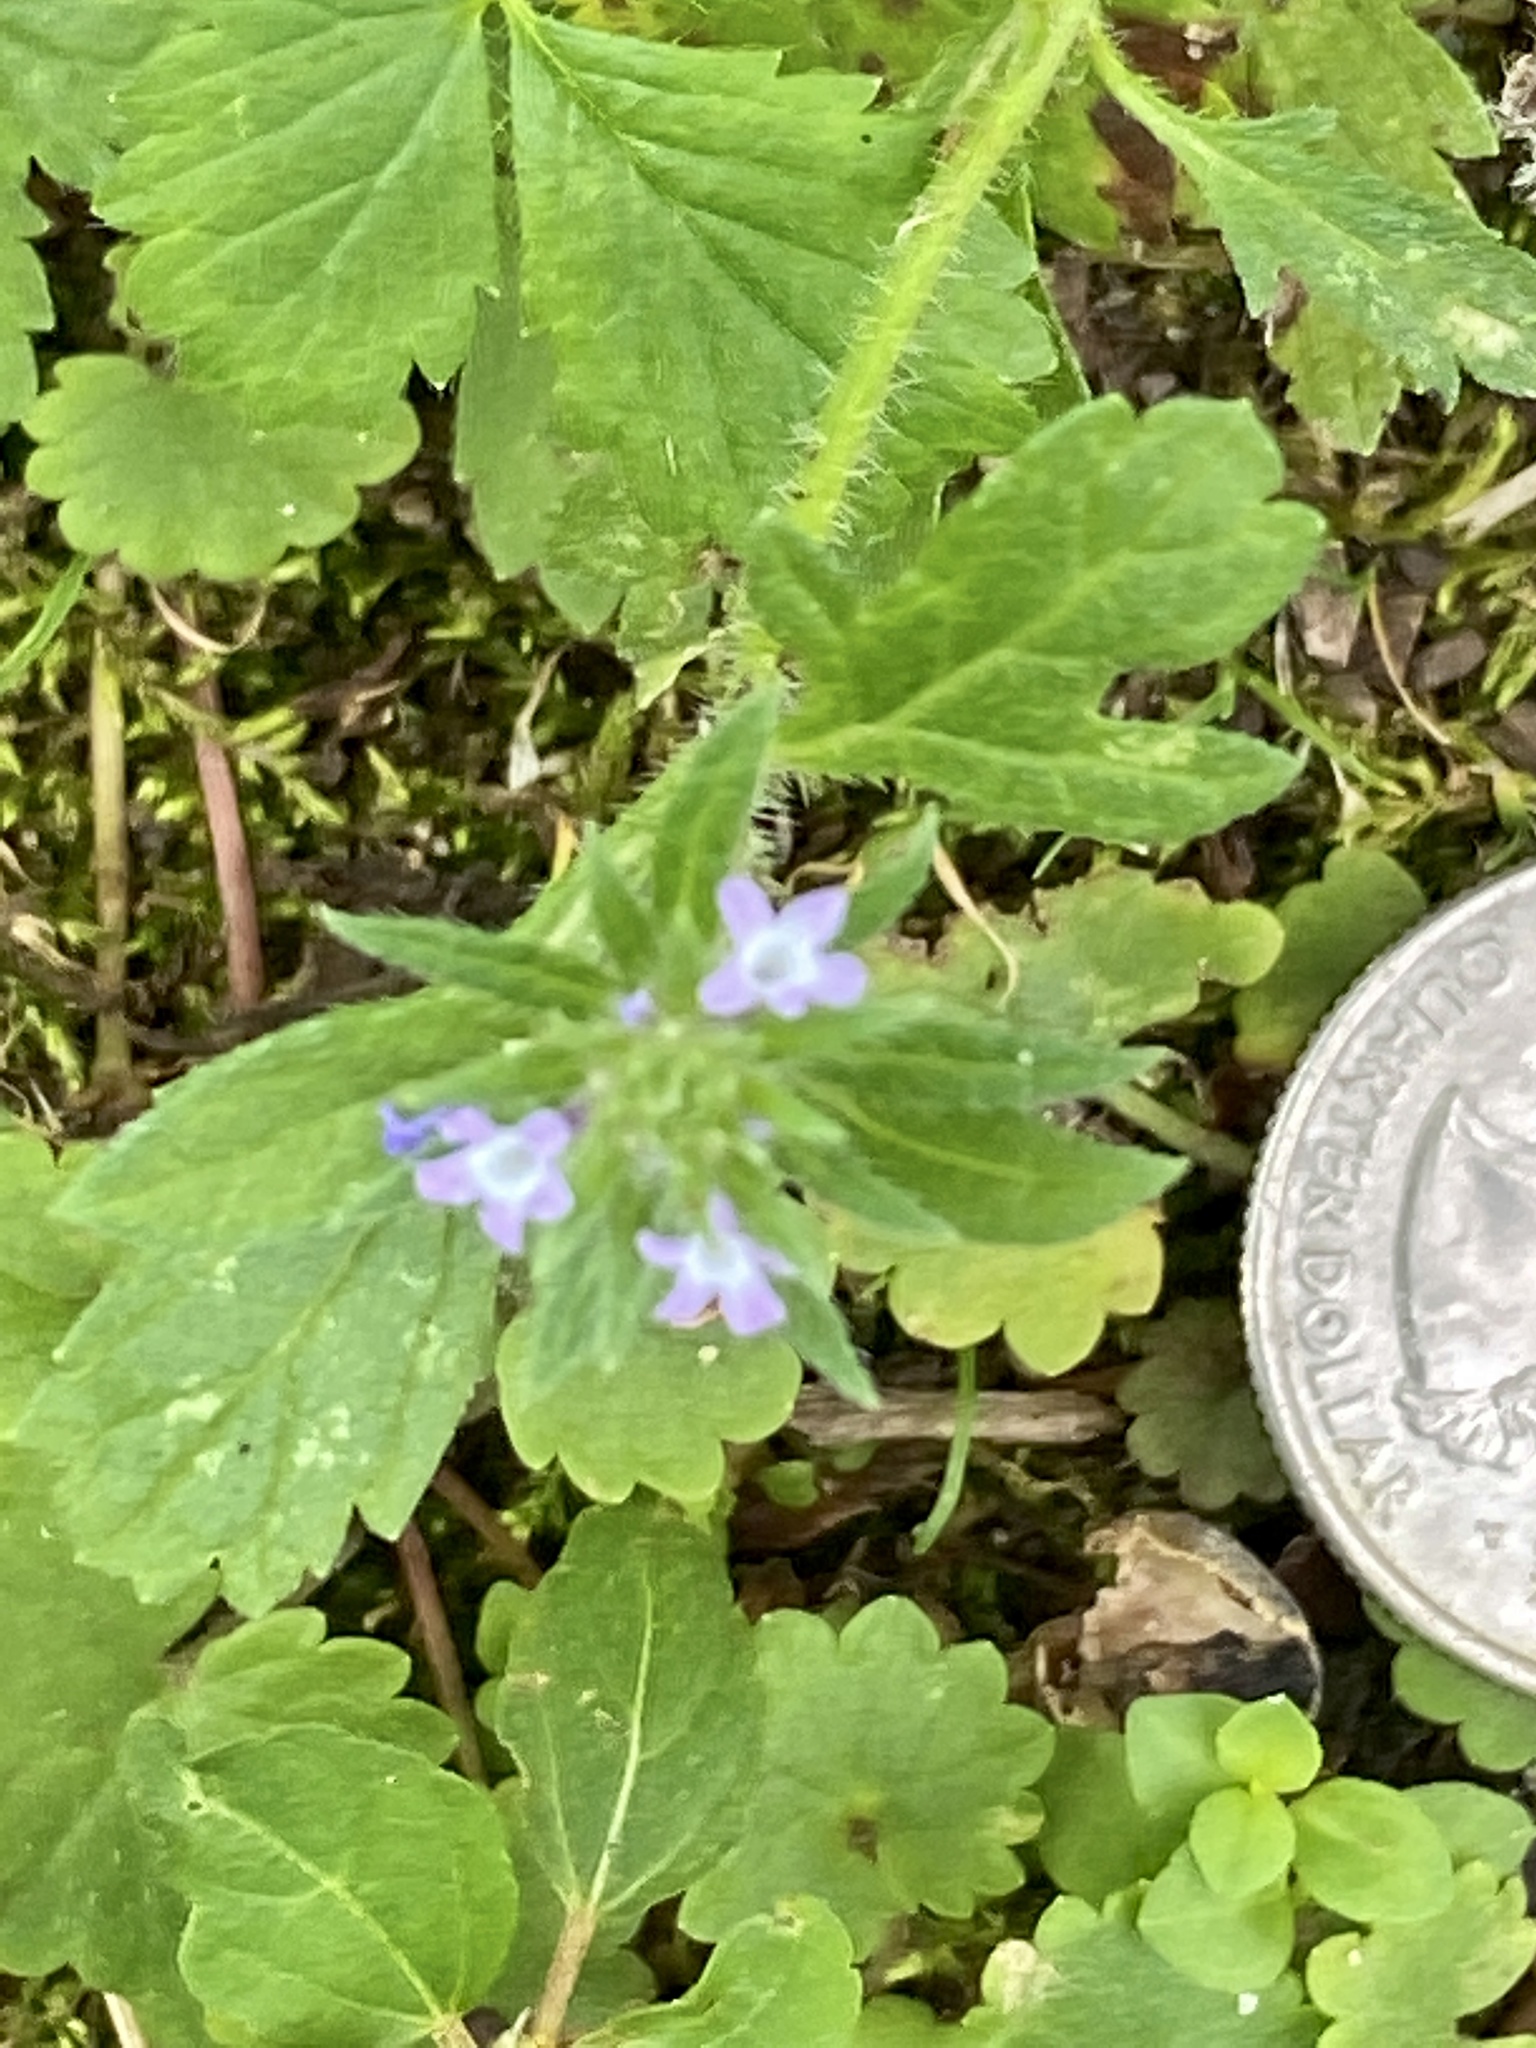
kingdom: Plantae
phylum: Tracheophyta
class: Magnoliopsida
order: Lamiales
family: Verbenaceae
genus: Verbena
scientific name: Verbena bracteata
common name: Bracted vervain
